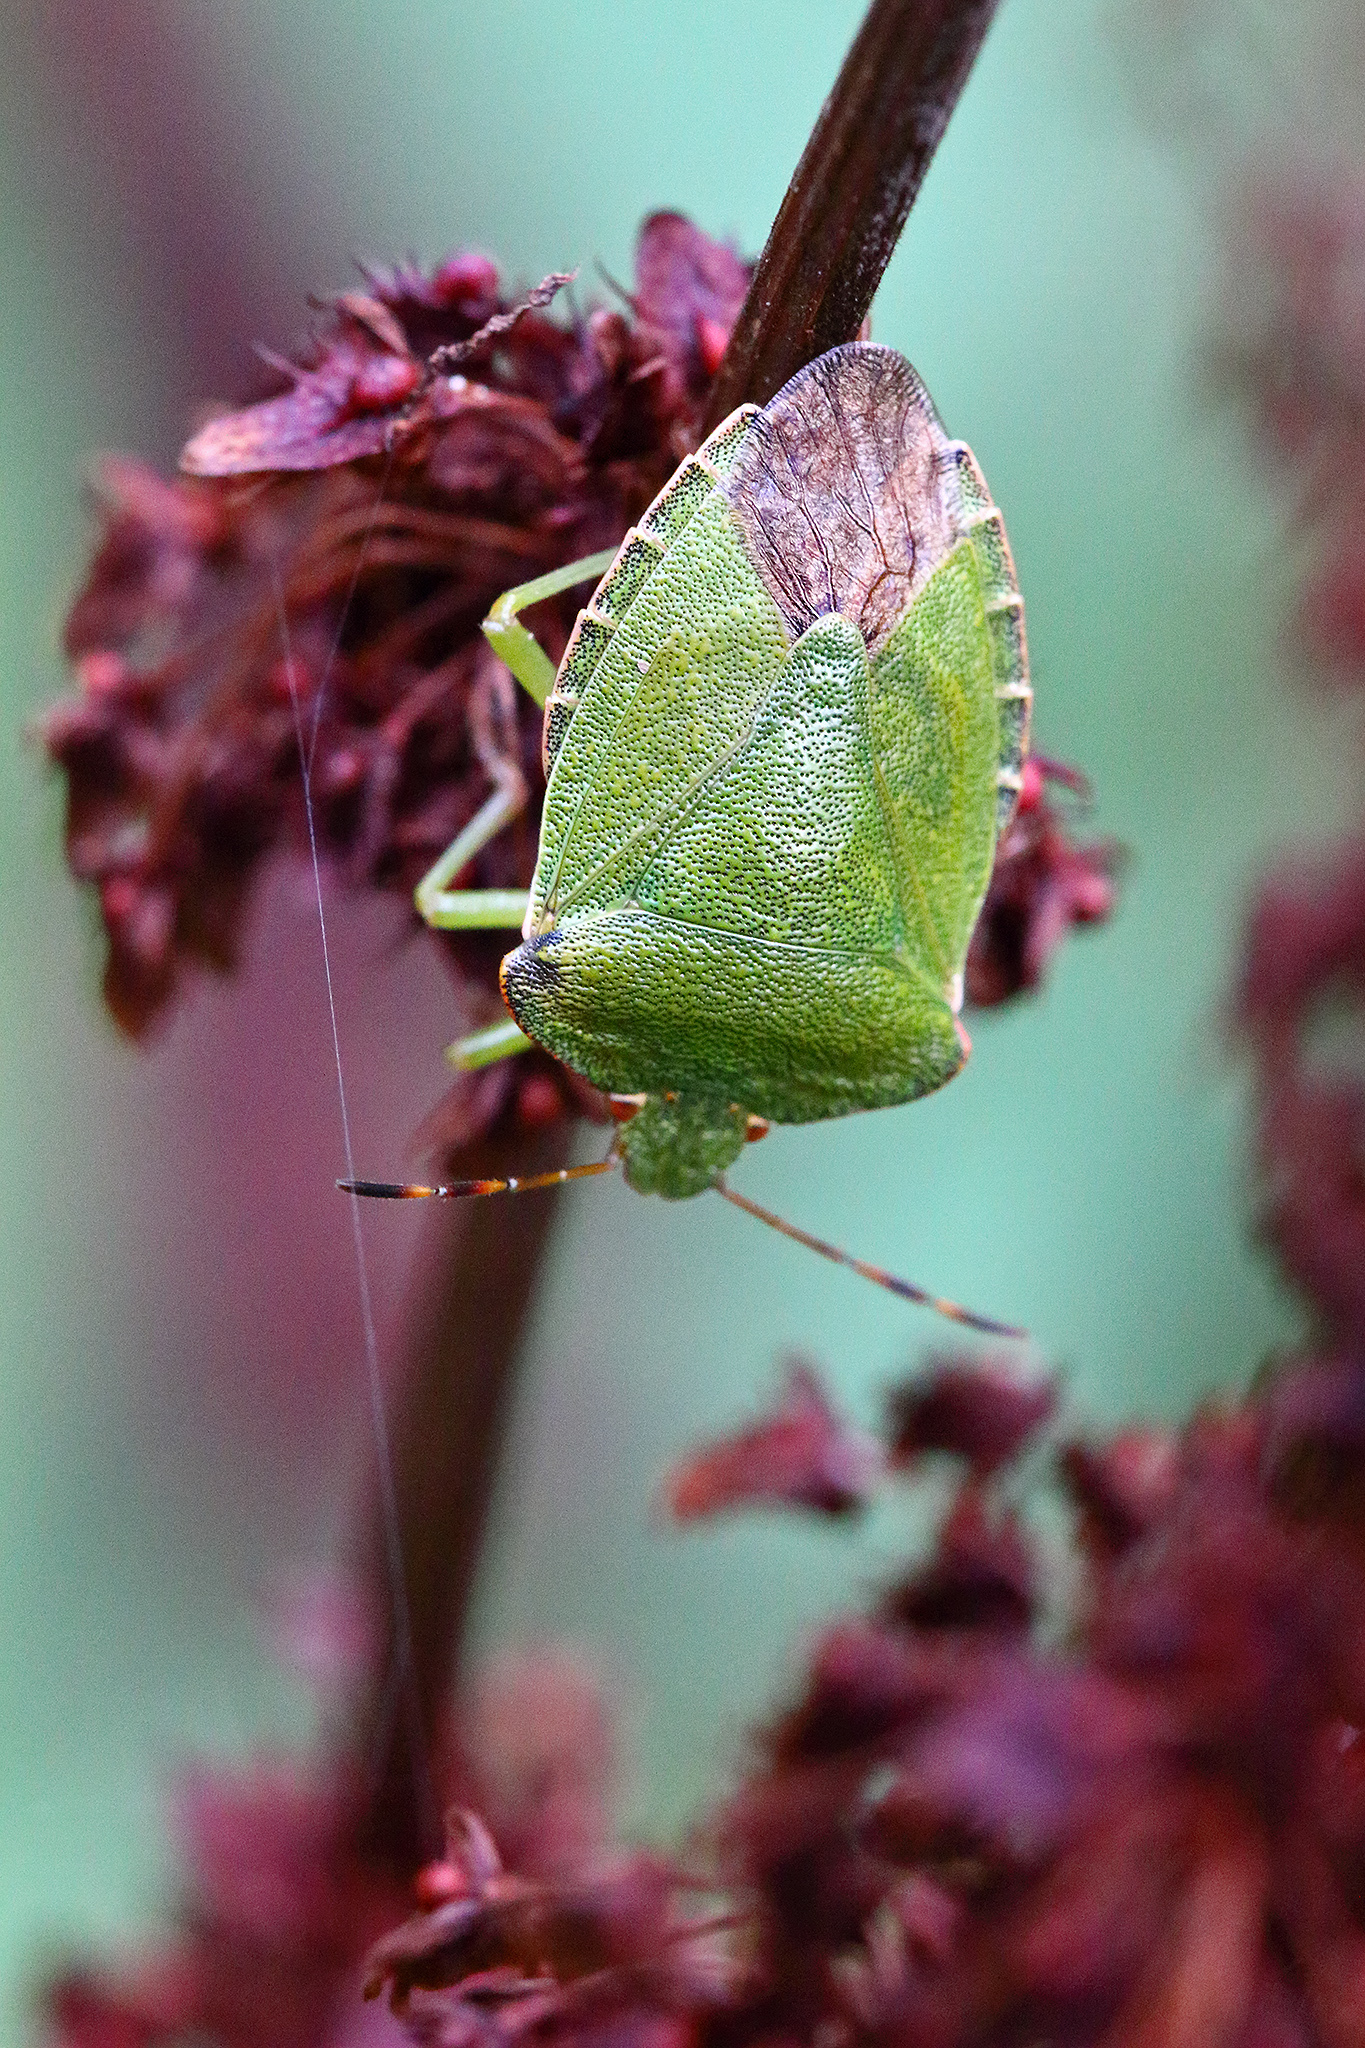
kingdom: Animalia
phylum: Arthropoda
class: Insecta
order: Hemiptera
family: Pentatomidae
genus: Palomena
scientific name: Palomena prasina
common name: Green shieldbug
